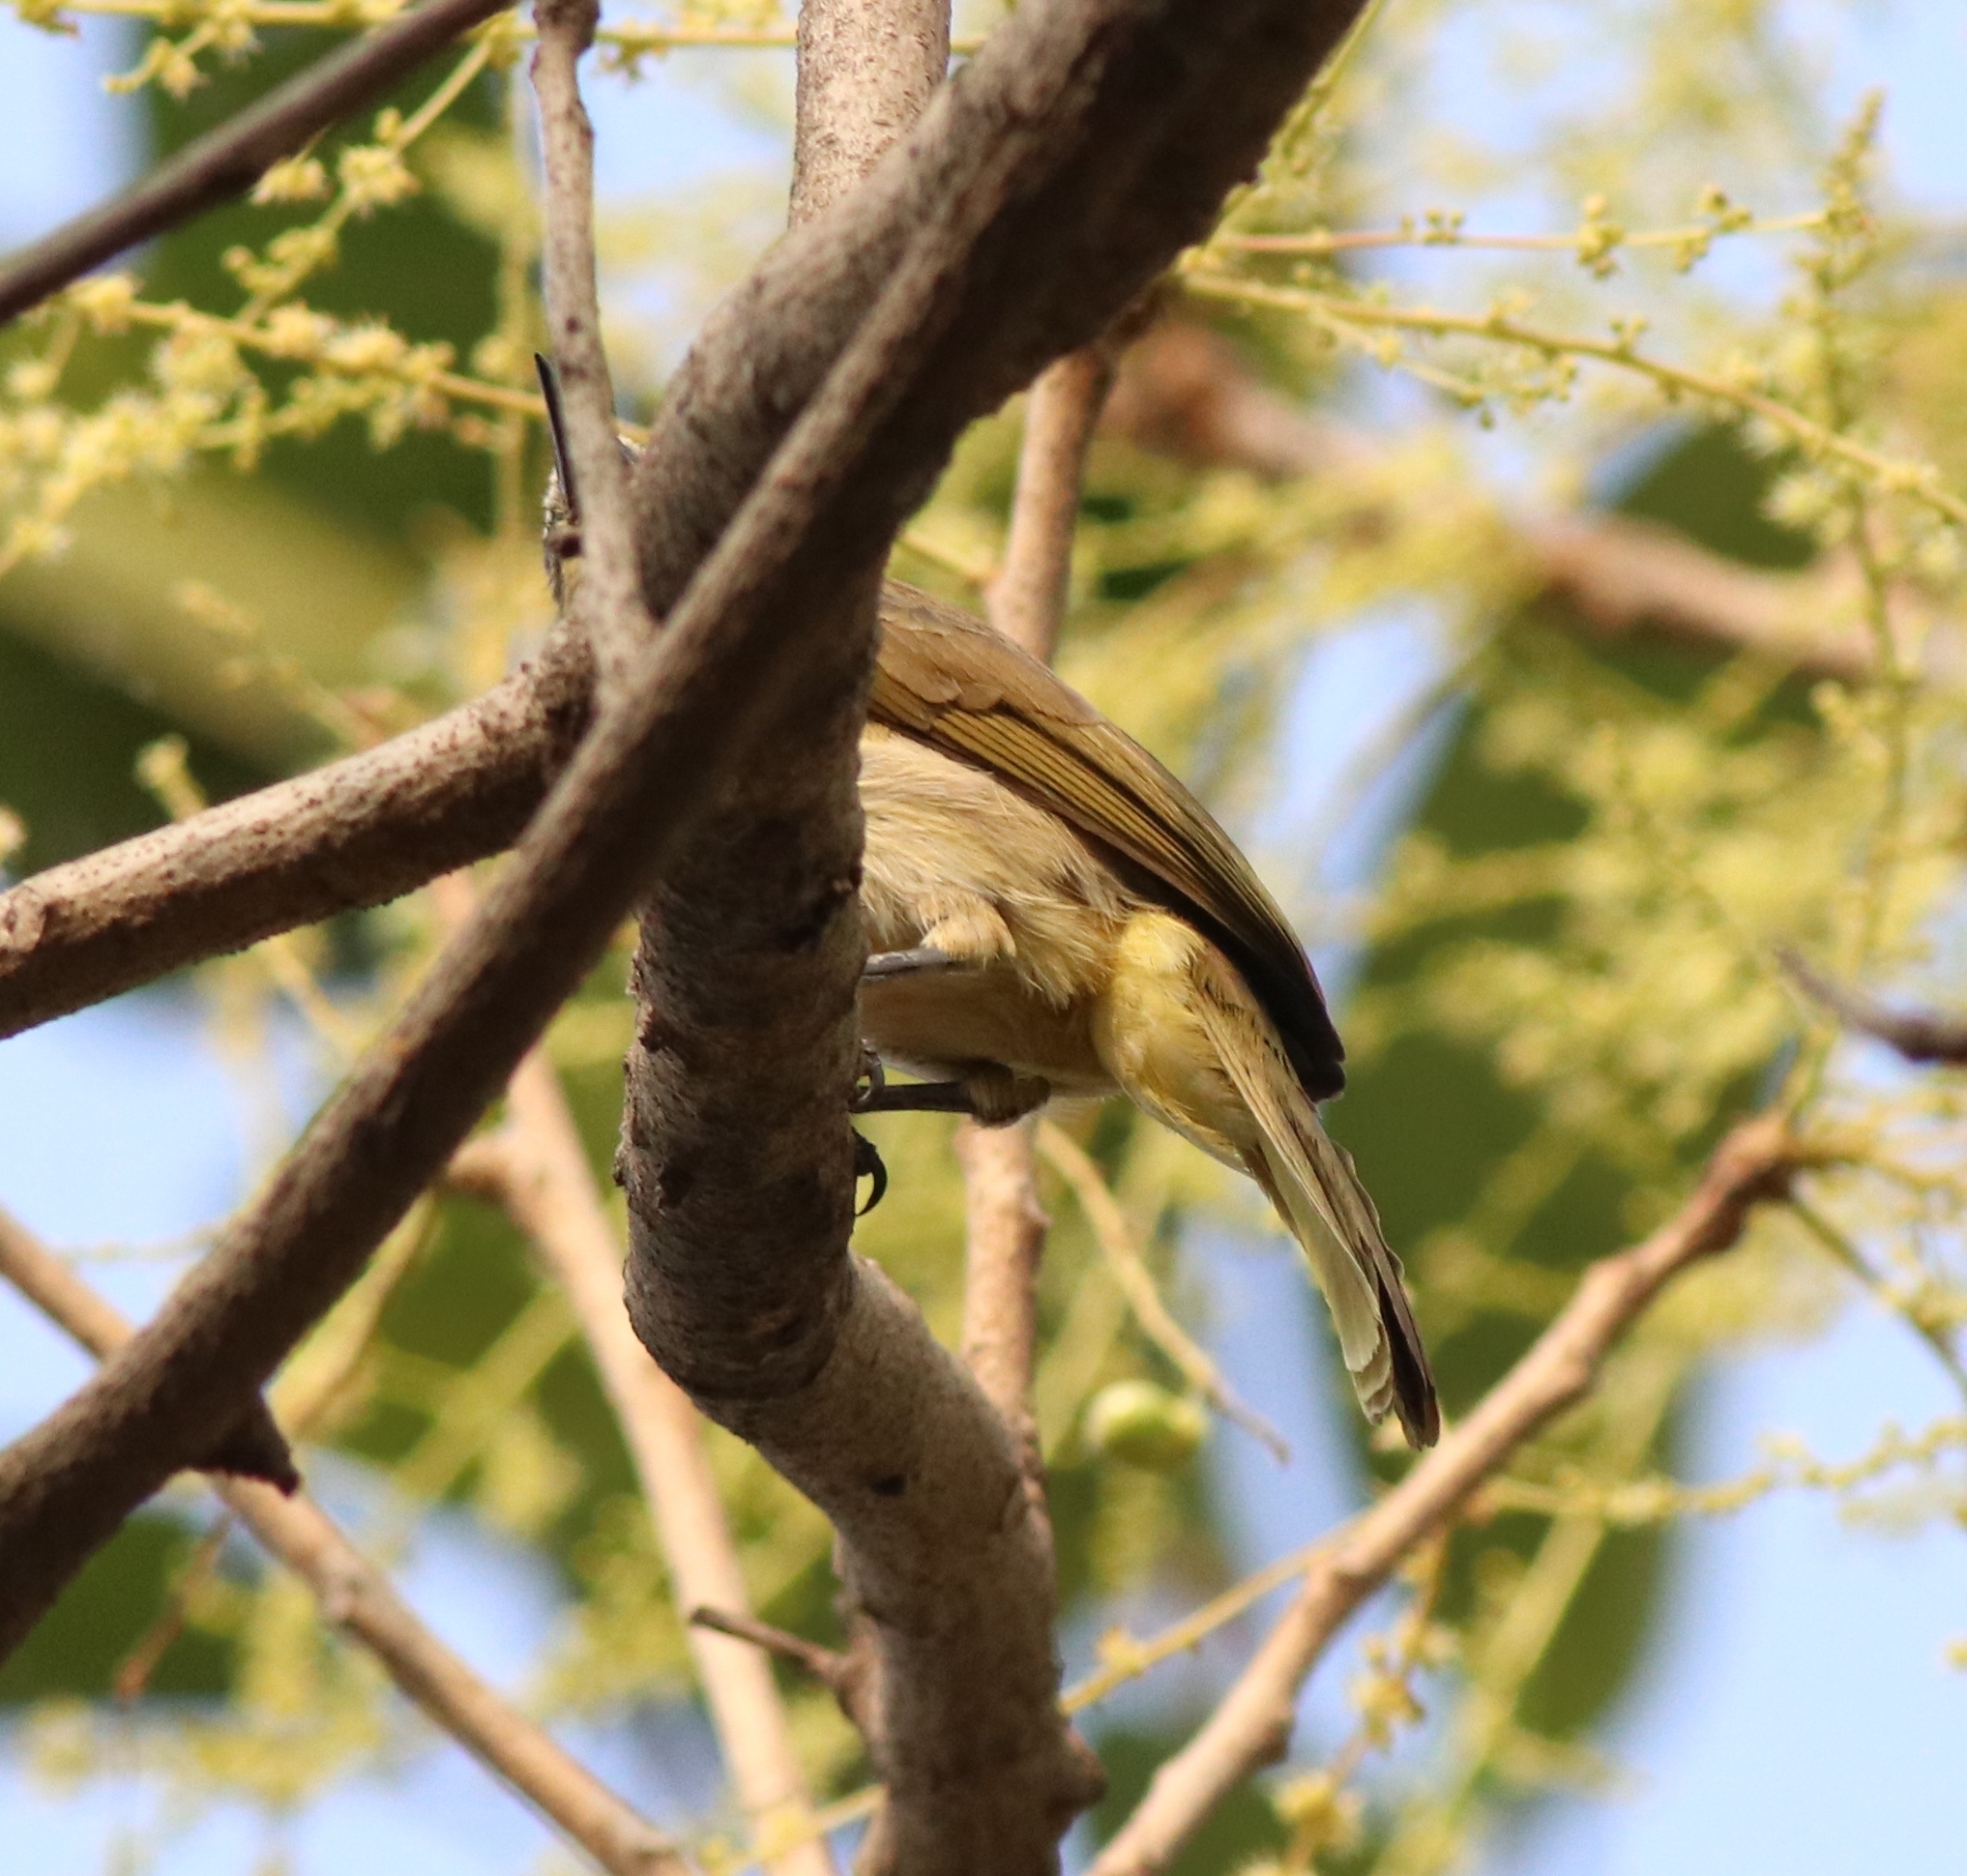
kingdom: Animalia
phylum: Chordata
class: Aves
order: Passeriformes
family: Pycnonotidae
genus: Pycnonotus
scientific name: Pycnonotus luteolus
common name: White-browed bulbul
